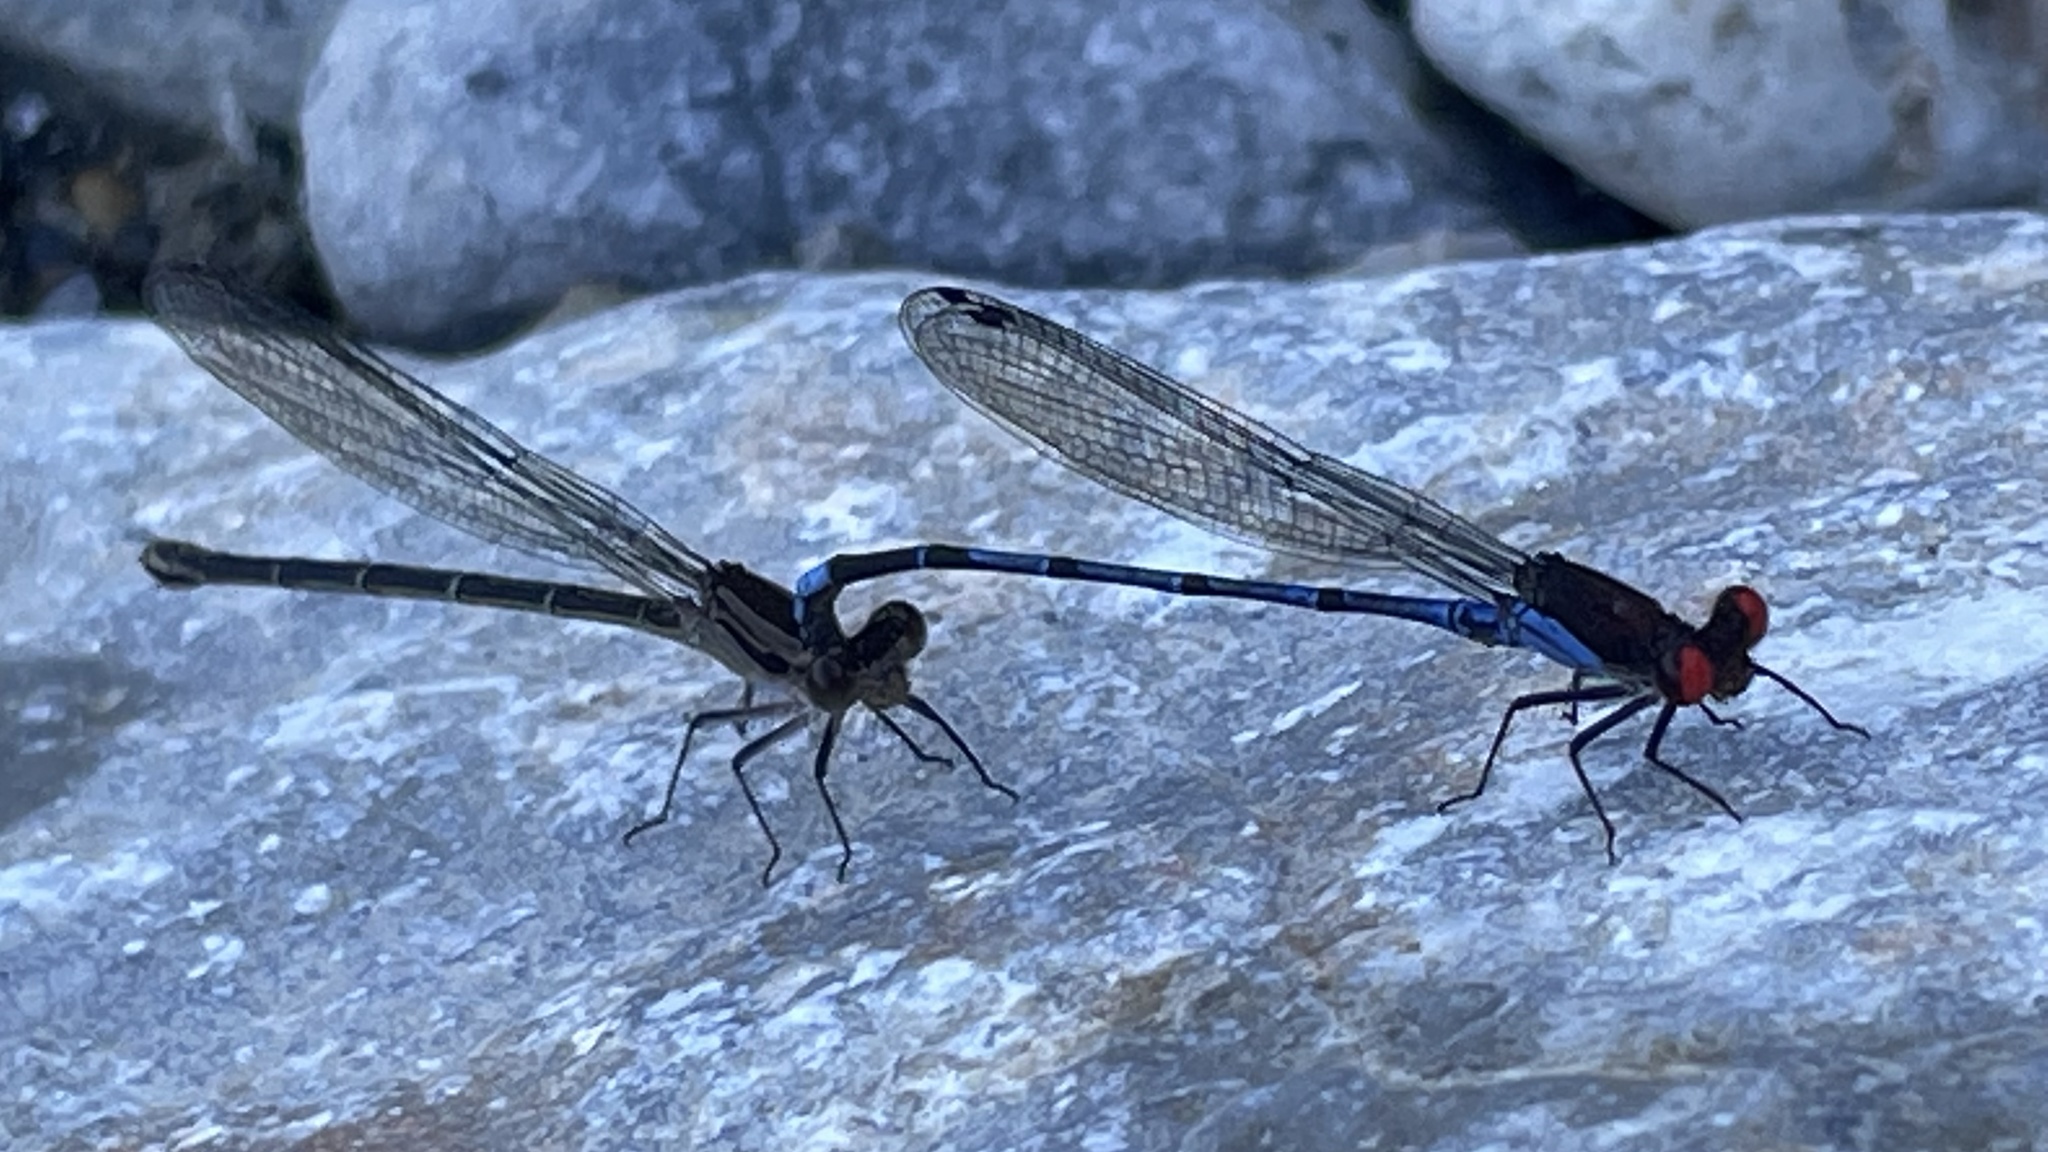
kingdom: Animalia
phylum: Arthropoda
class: Insecta
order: Odonata
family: Coenagrionidae
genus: Argia
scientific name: Argia oenea
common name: Fiery-eyed dancer
